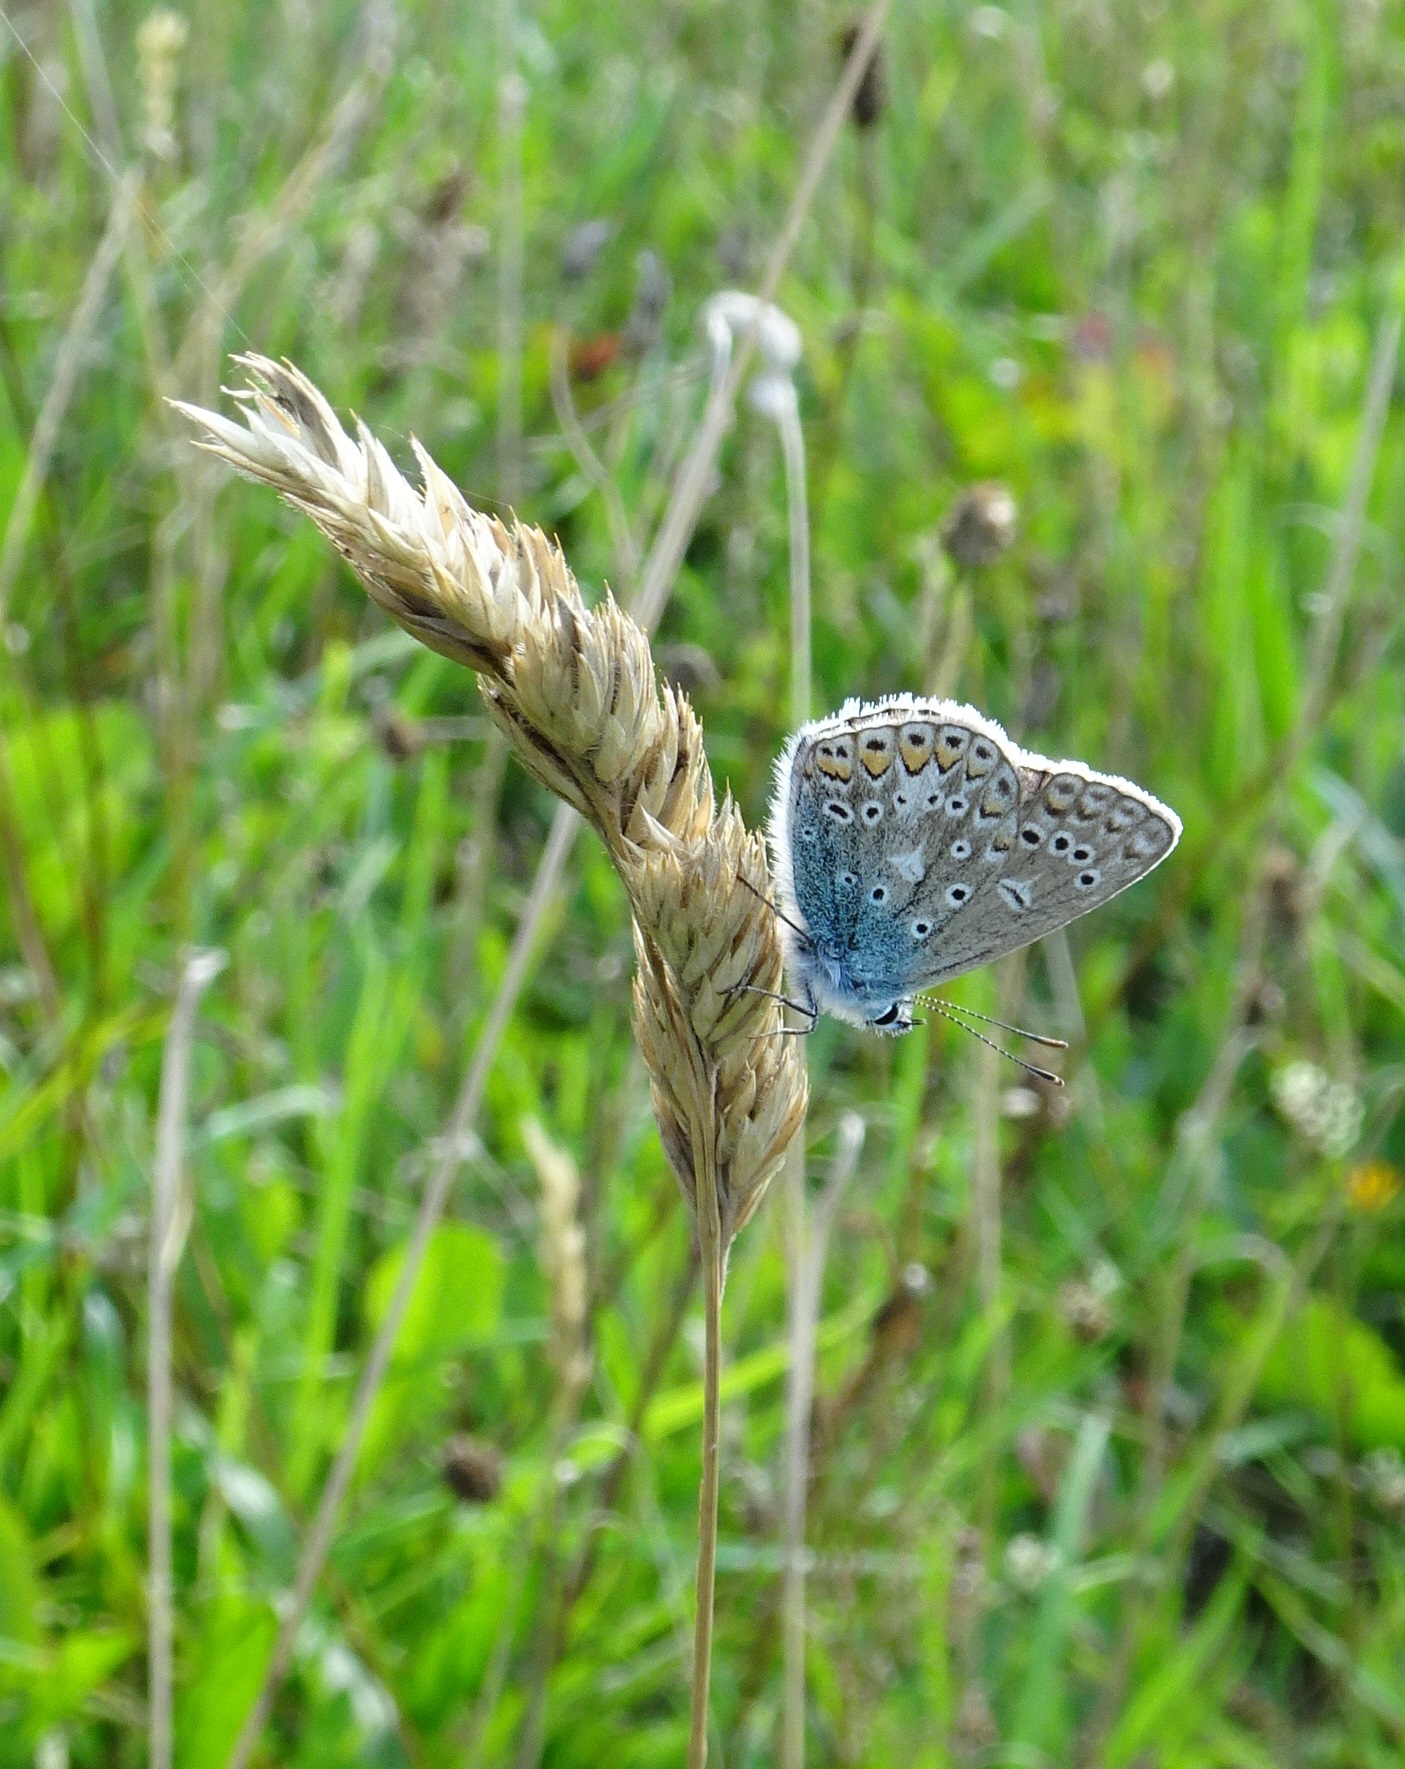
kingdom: Animalia
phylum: Arthropoda
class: Insecta
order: Lepidoptera
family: Lycaenidae
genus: Polyommatus
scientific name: Polyommatus icarus
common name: Common blue
